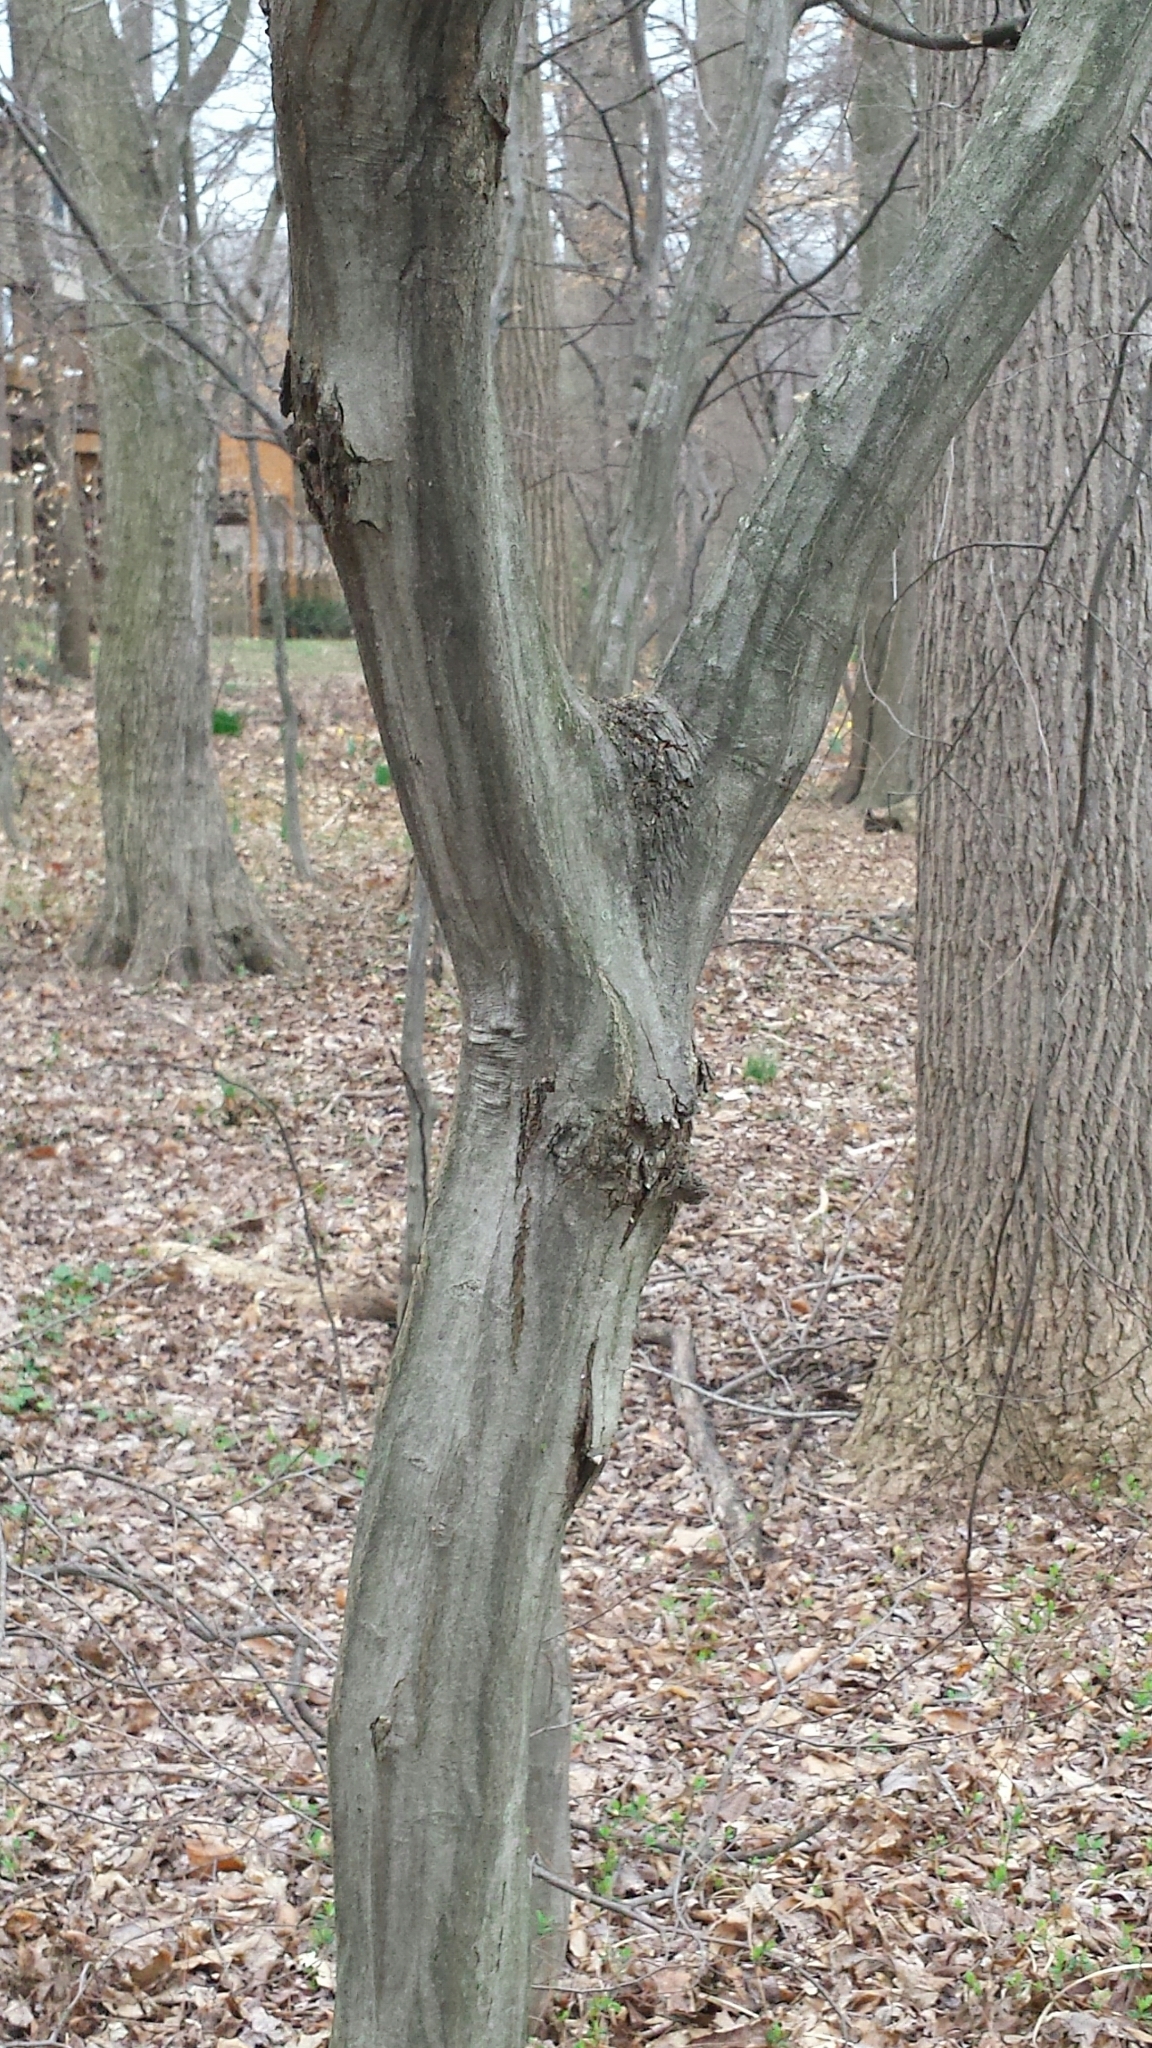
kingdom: Plantae
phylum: Tracheophyta
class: Magnoliopsida
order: Fagales
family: Betulaceae
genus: Carpinus
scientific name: Carpinus caroliniana
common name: American hornbeam
